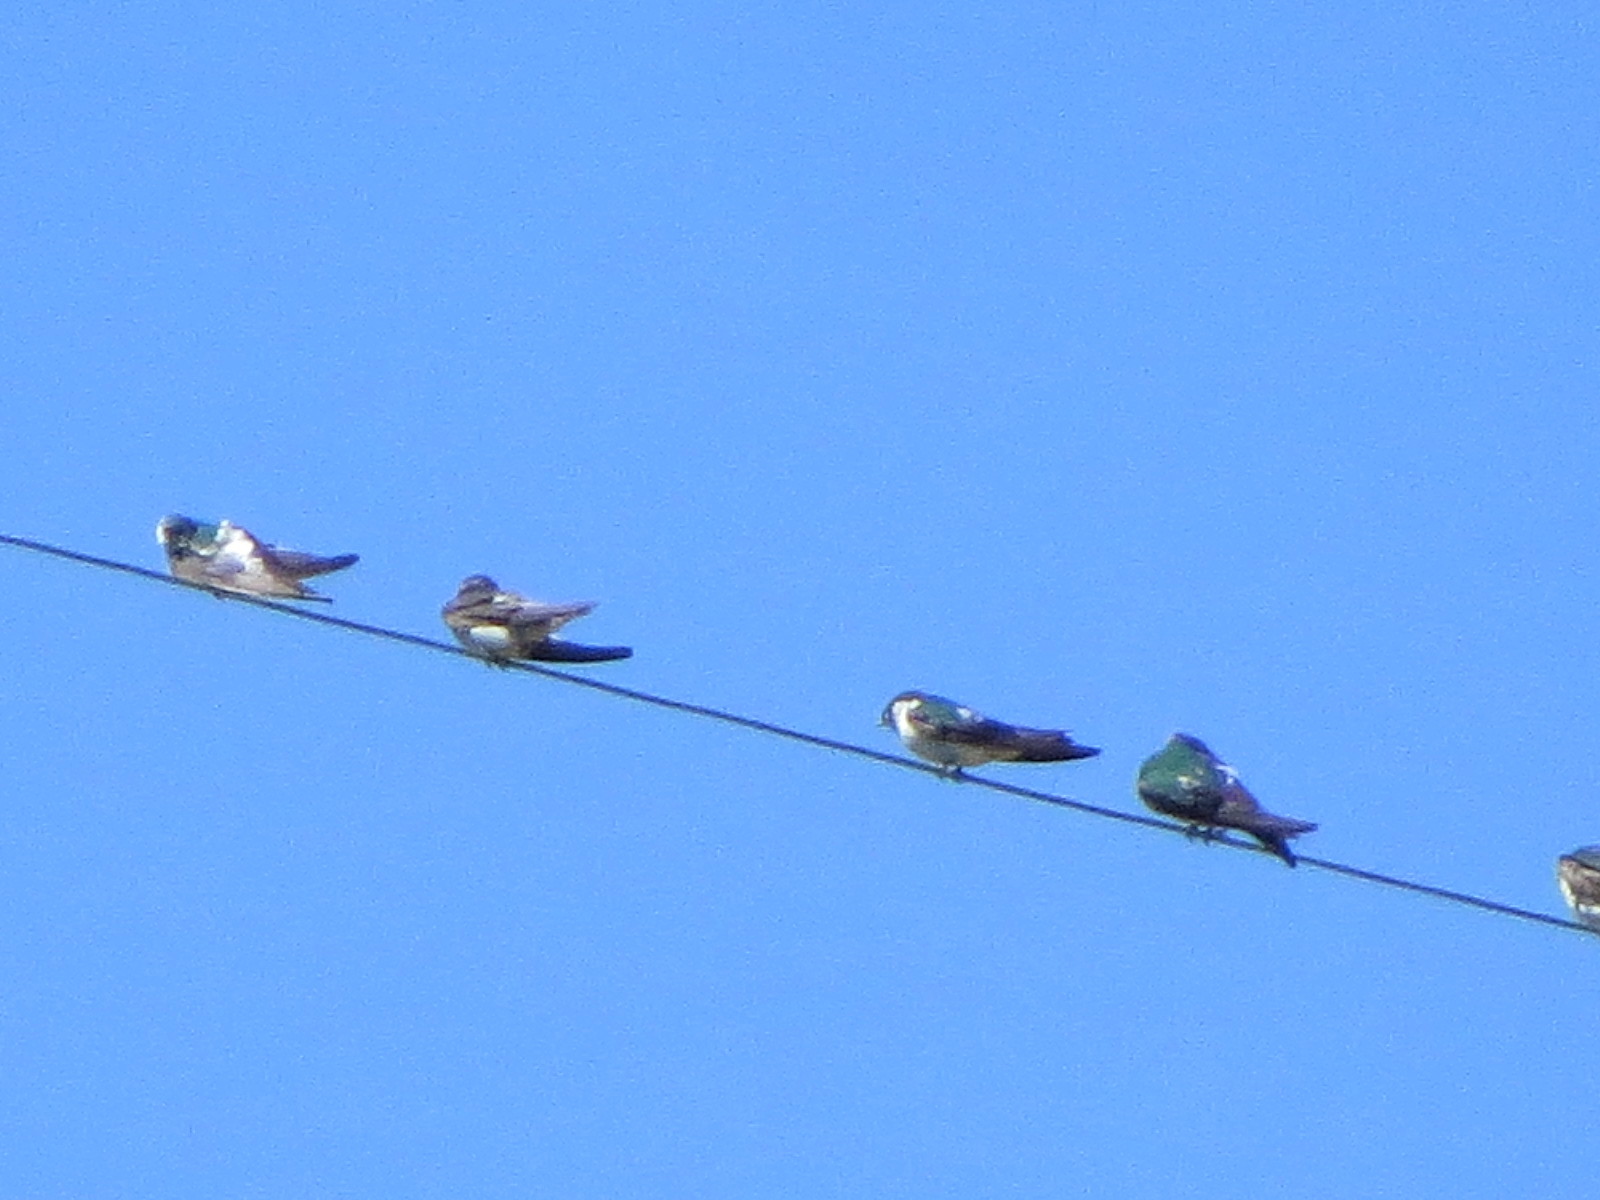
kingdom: Animalia
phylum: Chordata
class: Aves
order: Passeriformes
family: Hirundinidae
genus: Tachycineta
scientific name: Tachycineta thalassina
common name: Violet-green swallow
